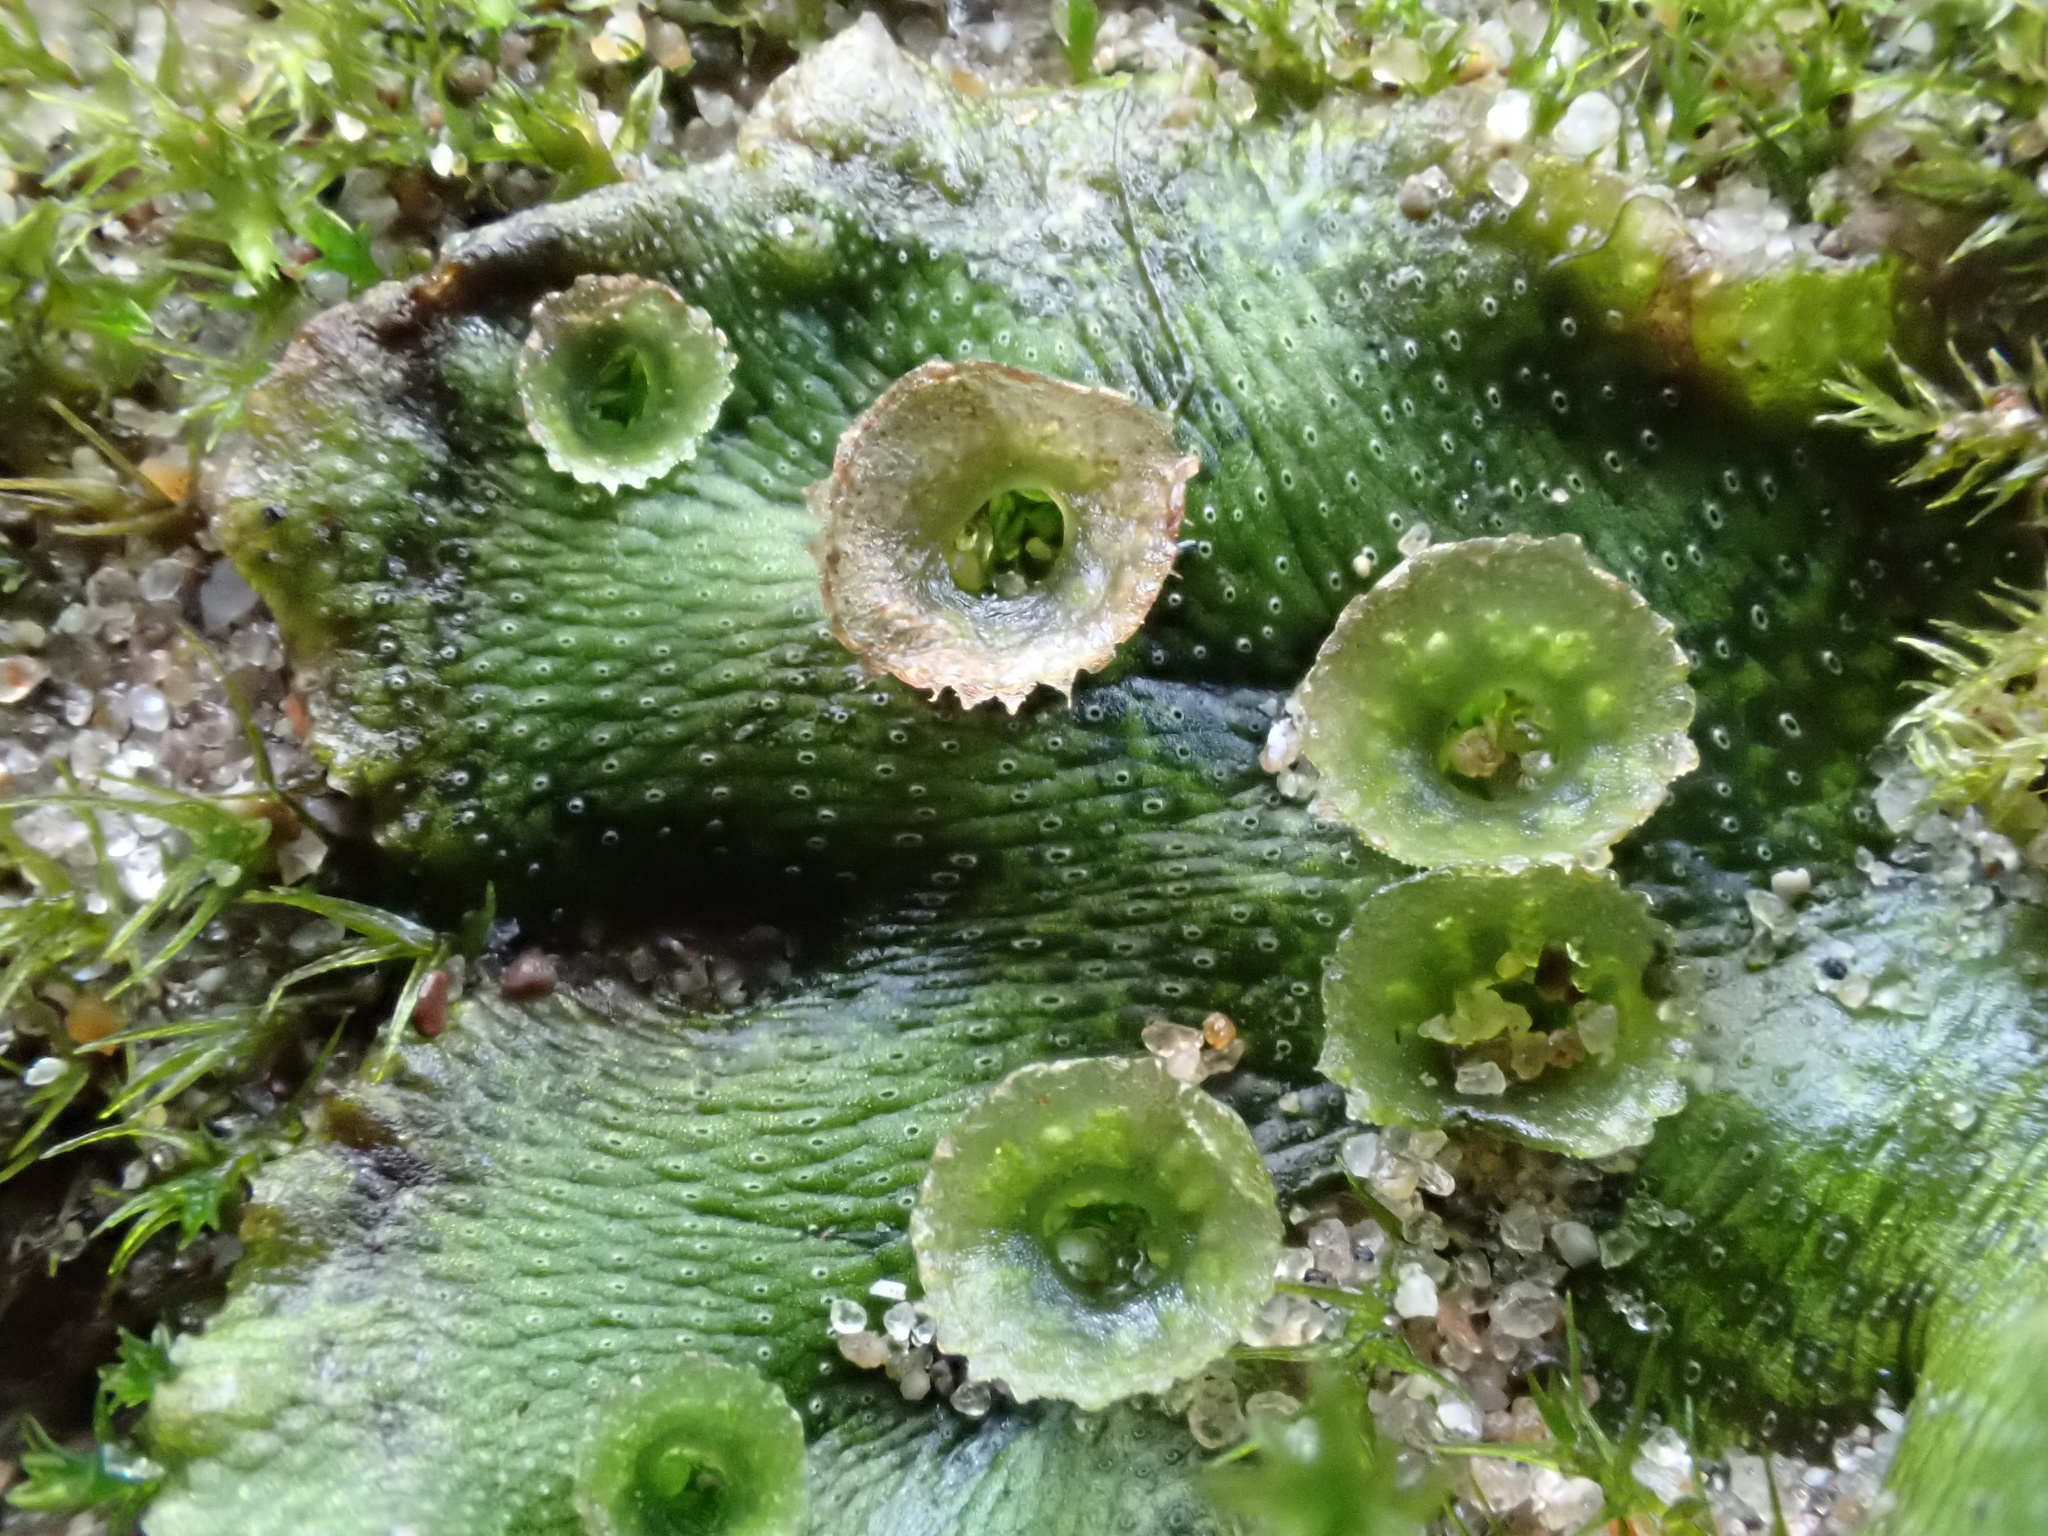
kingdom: Plantae
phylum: Marchantiophyta
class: Marchantiopsida
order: Marchantiales
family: Marchantiaceae
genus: Marchantia
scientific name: Marchantia polymorpha
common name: Common liverwort
